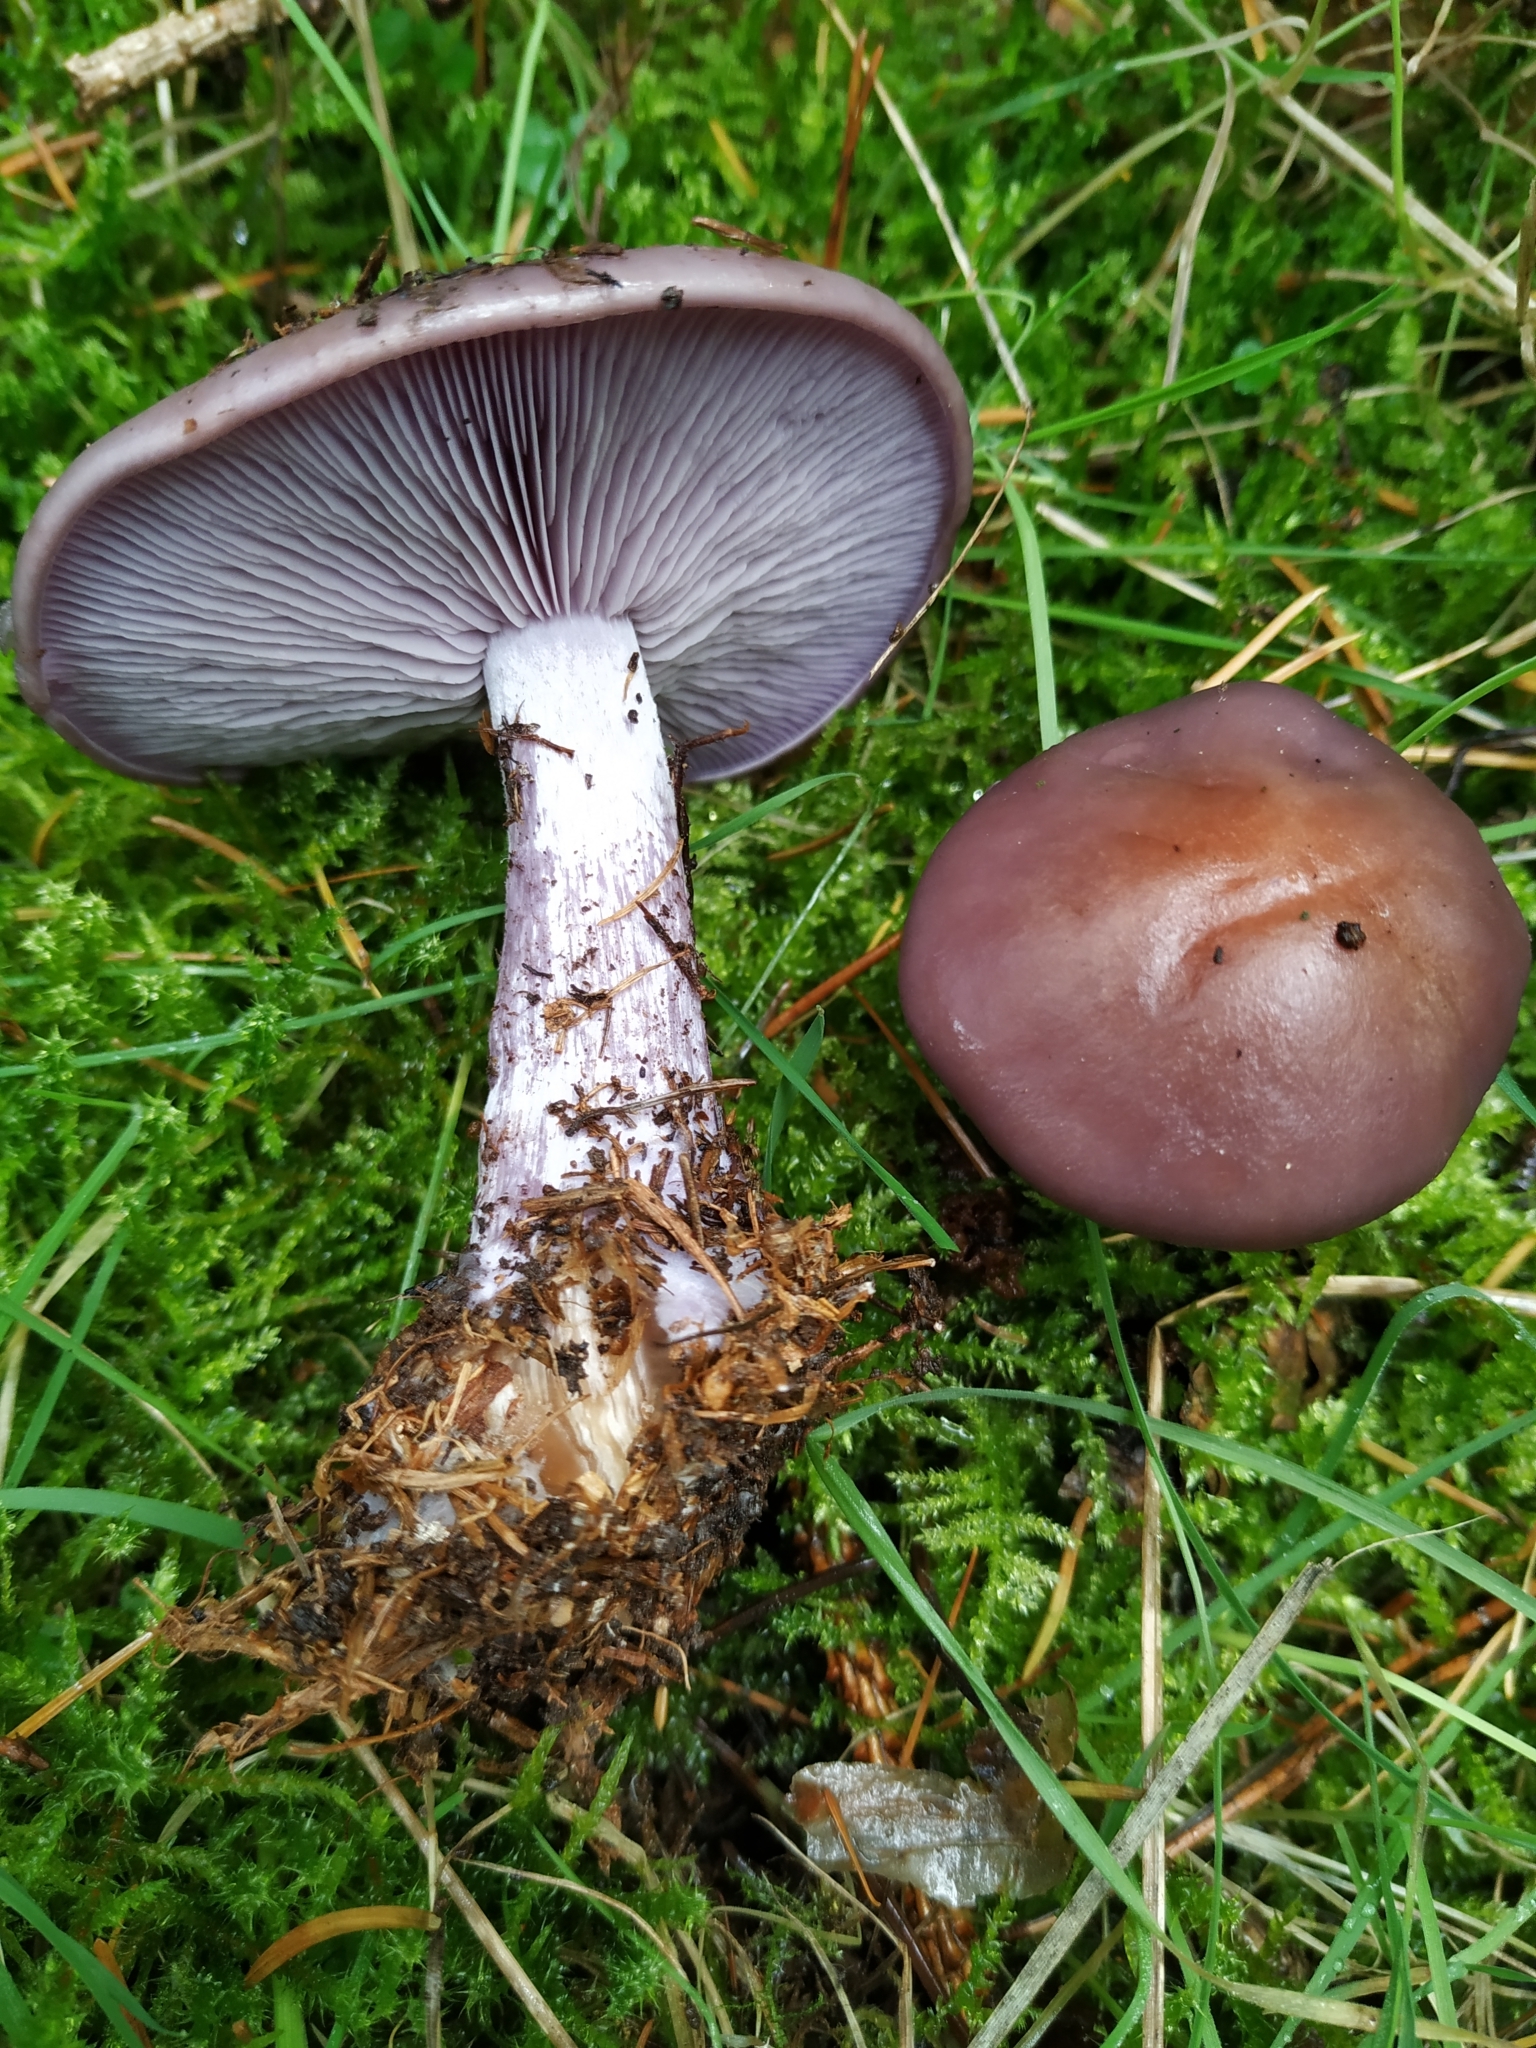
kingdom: Fungi
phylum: Basidiomycota
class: Agaricomycetes
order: Agaricales
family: Tricholomataceae
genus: Collybia
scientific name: Collybia
